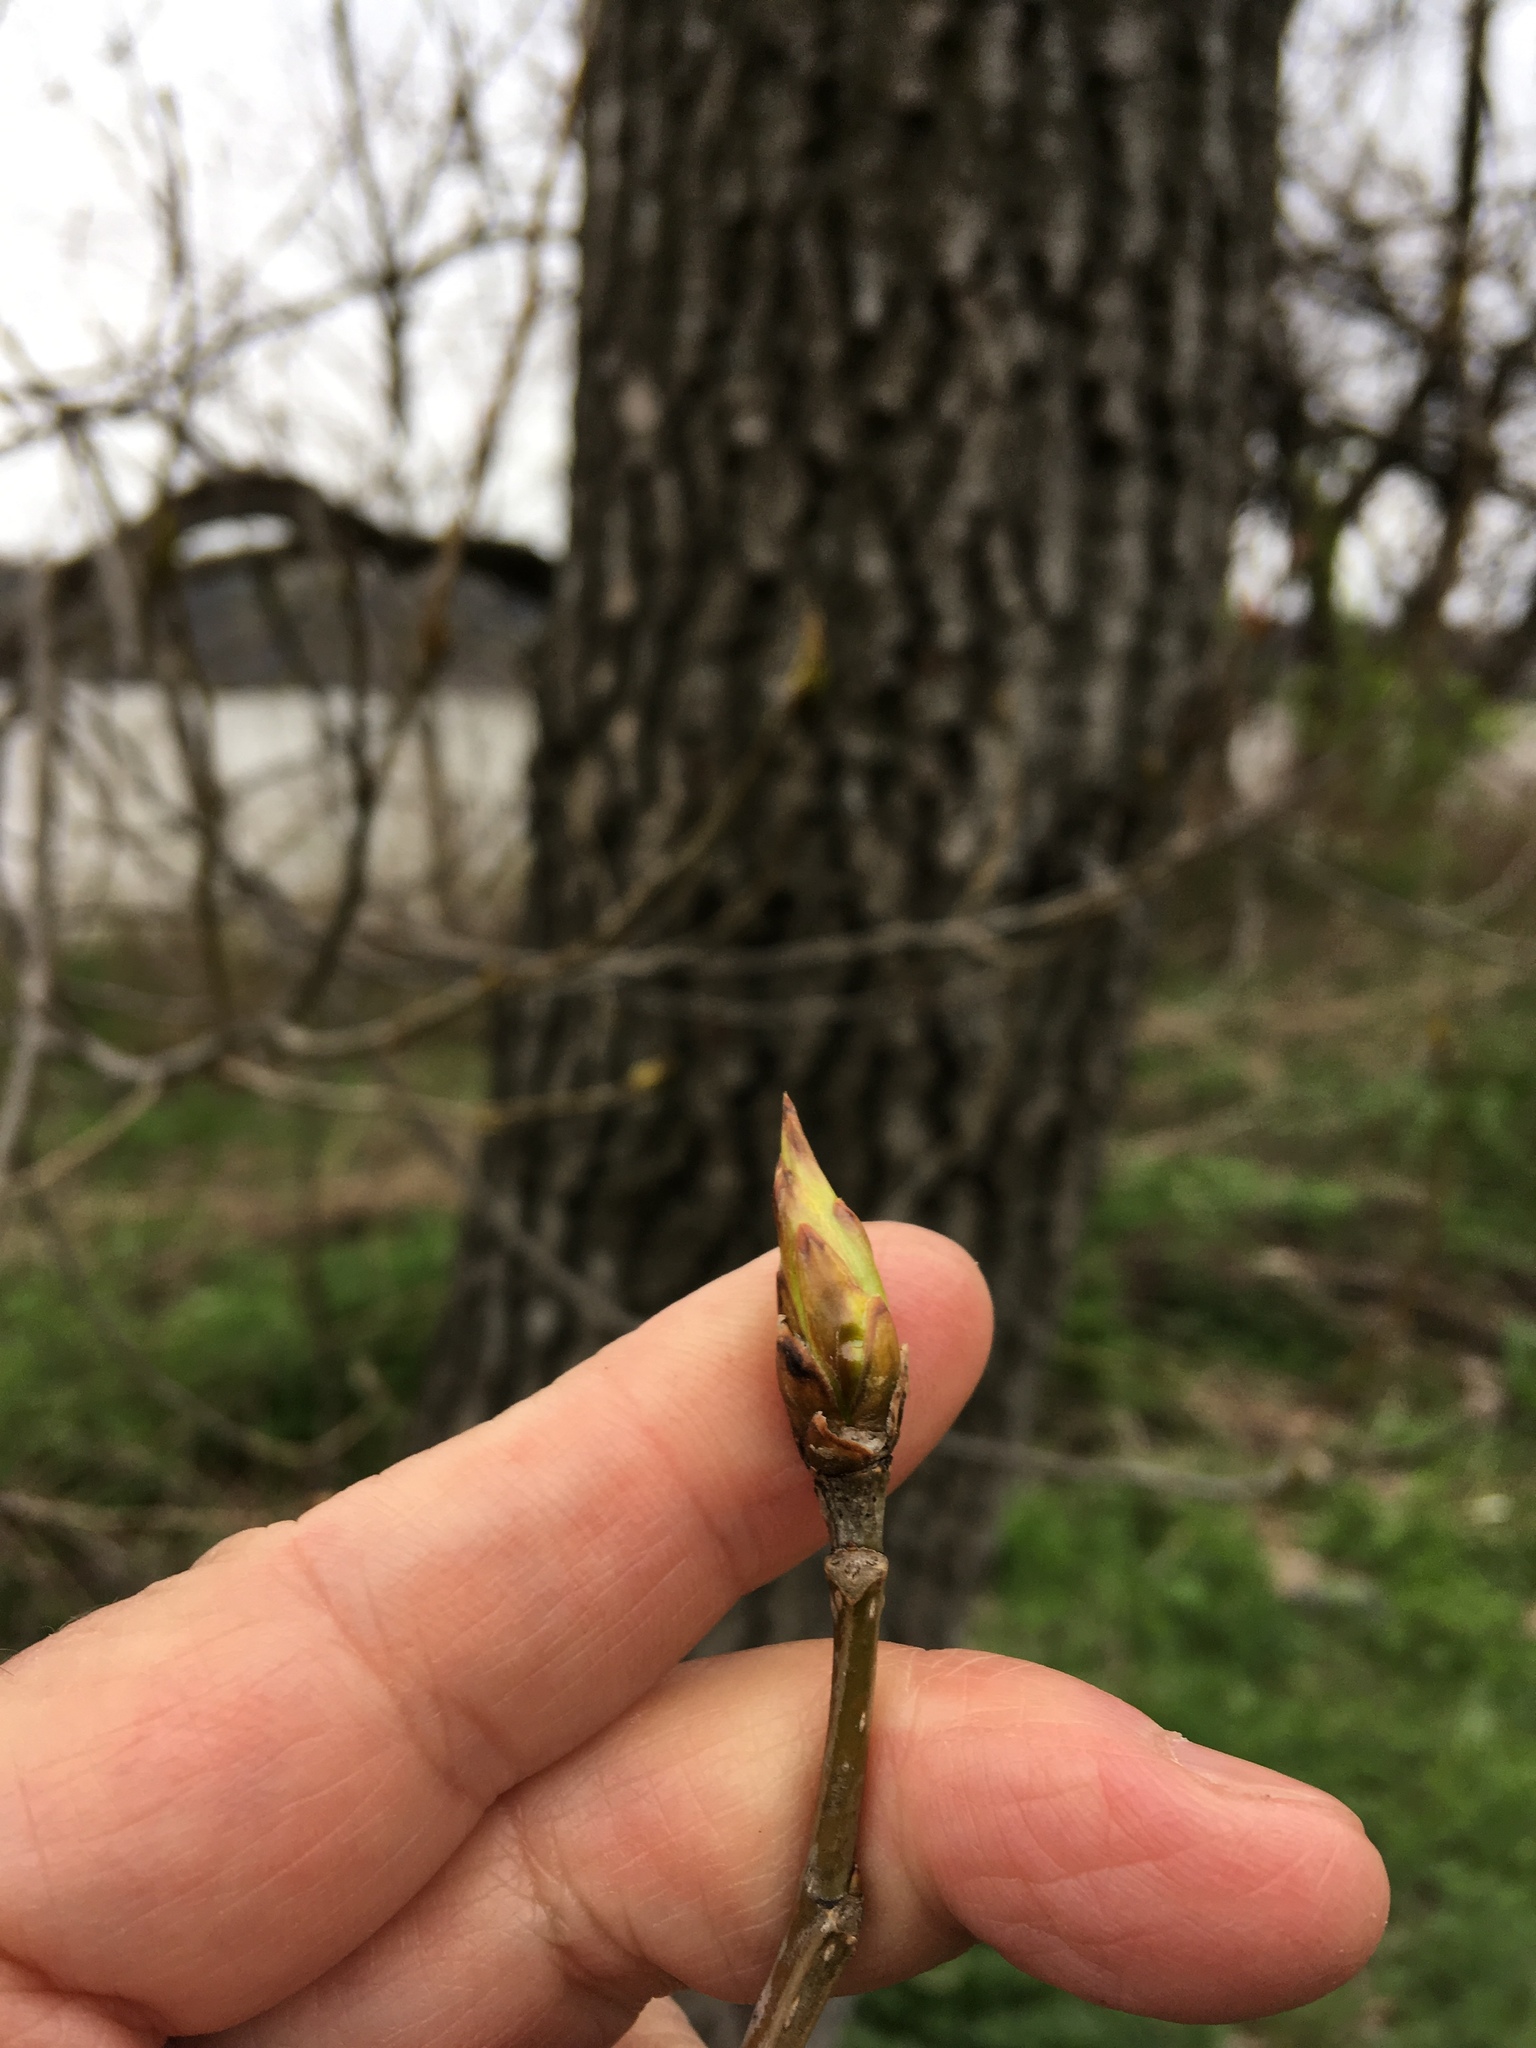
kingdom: Plantae
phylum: Tracheophyta
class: Magnoliopsida
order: Malpighiales
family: Salicaceae
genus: Populus
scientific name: Populus deltoides
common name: Eastern cottonwood
